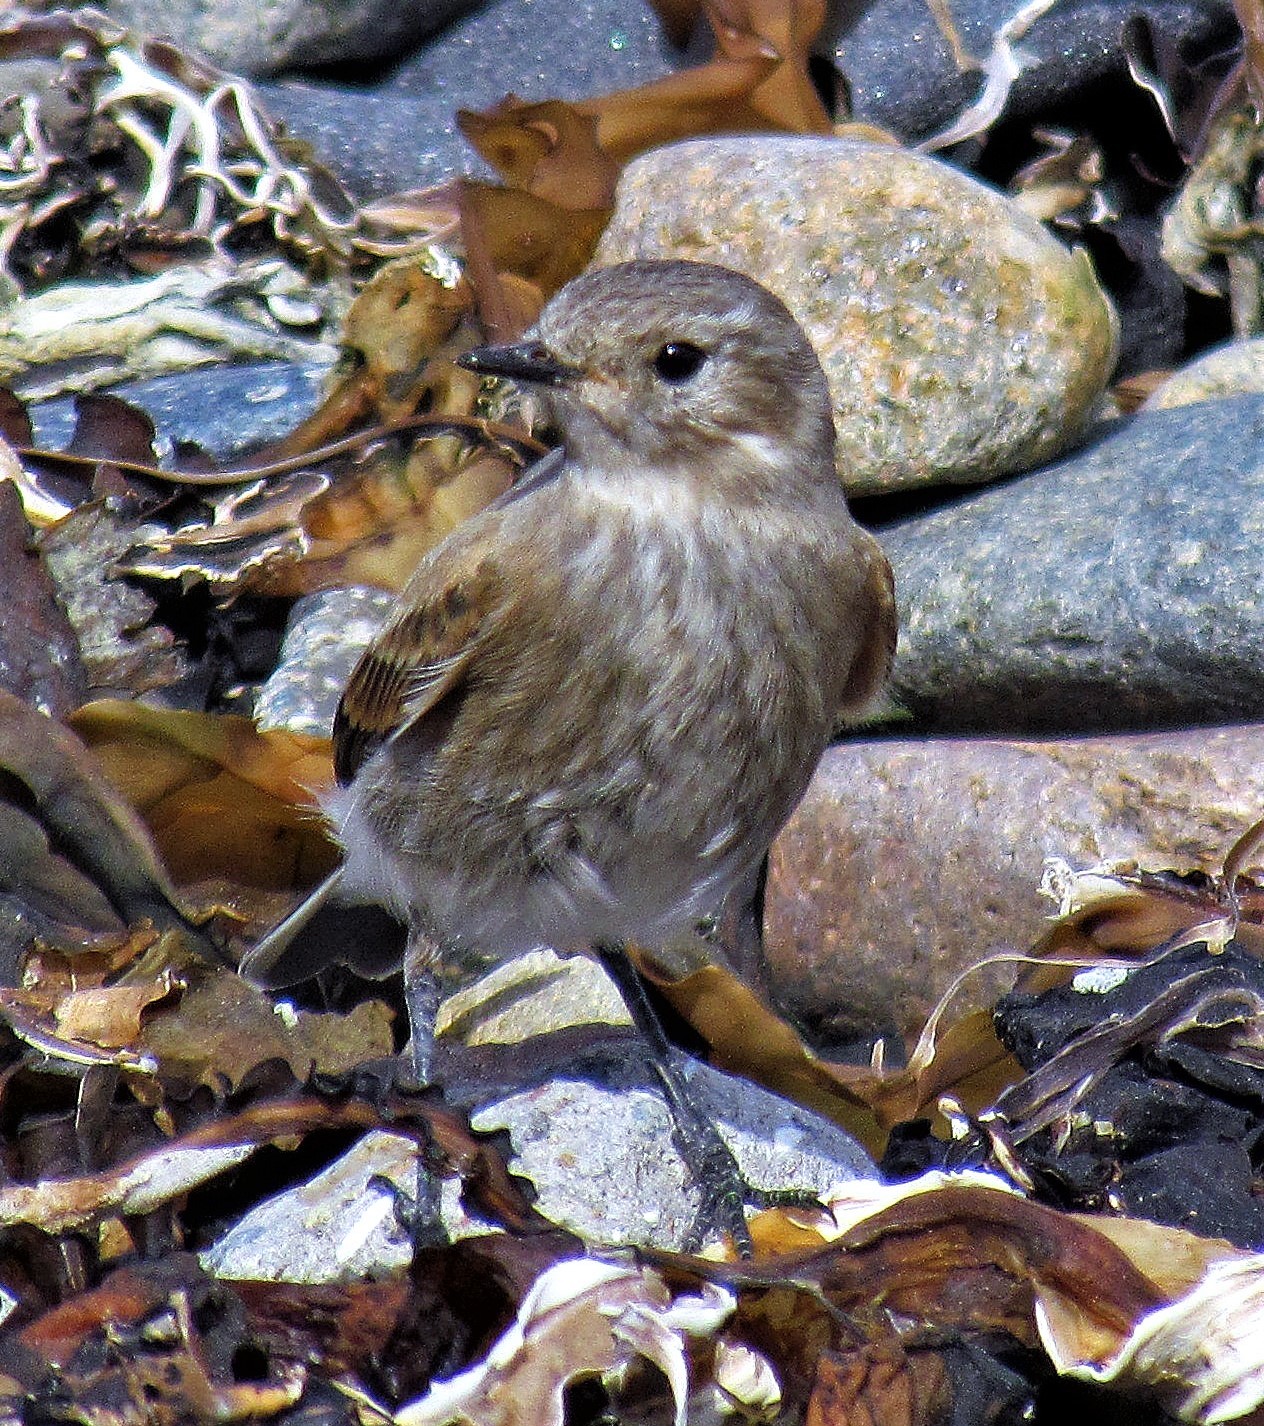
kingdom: Animalia
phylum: Chordata
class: Aves
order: Passeriformes
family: Tyrannidae
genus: Lessonia
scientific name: Lessonia rufa
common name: Austral negrito
